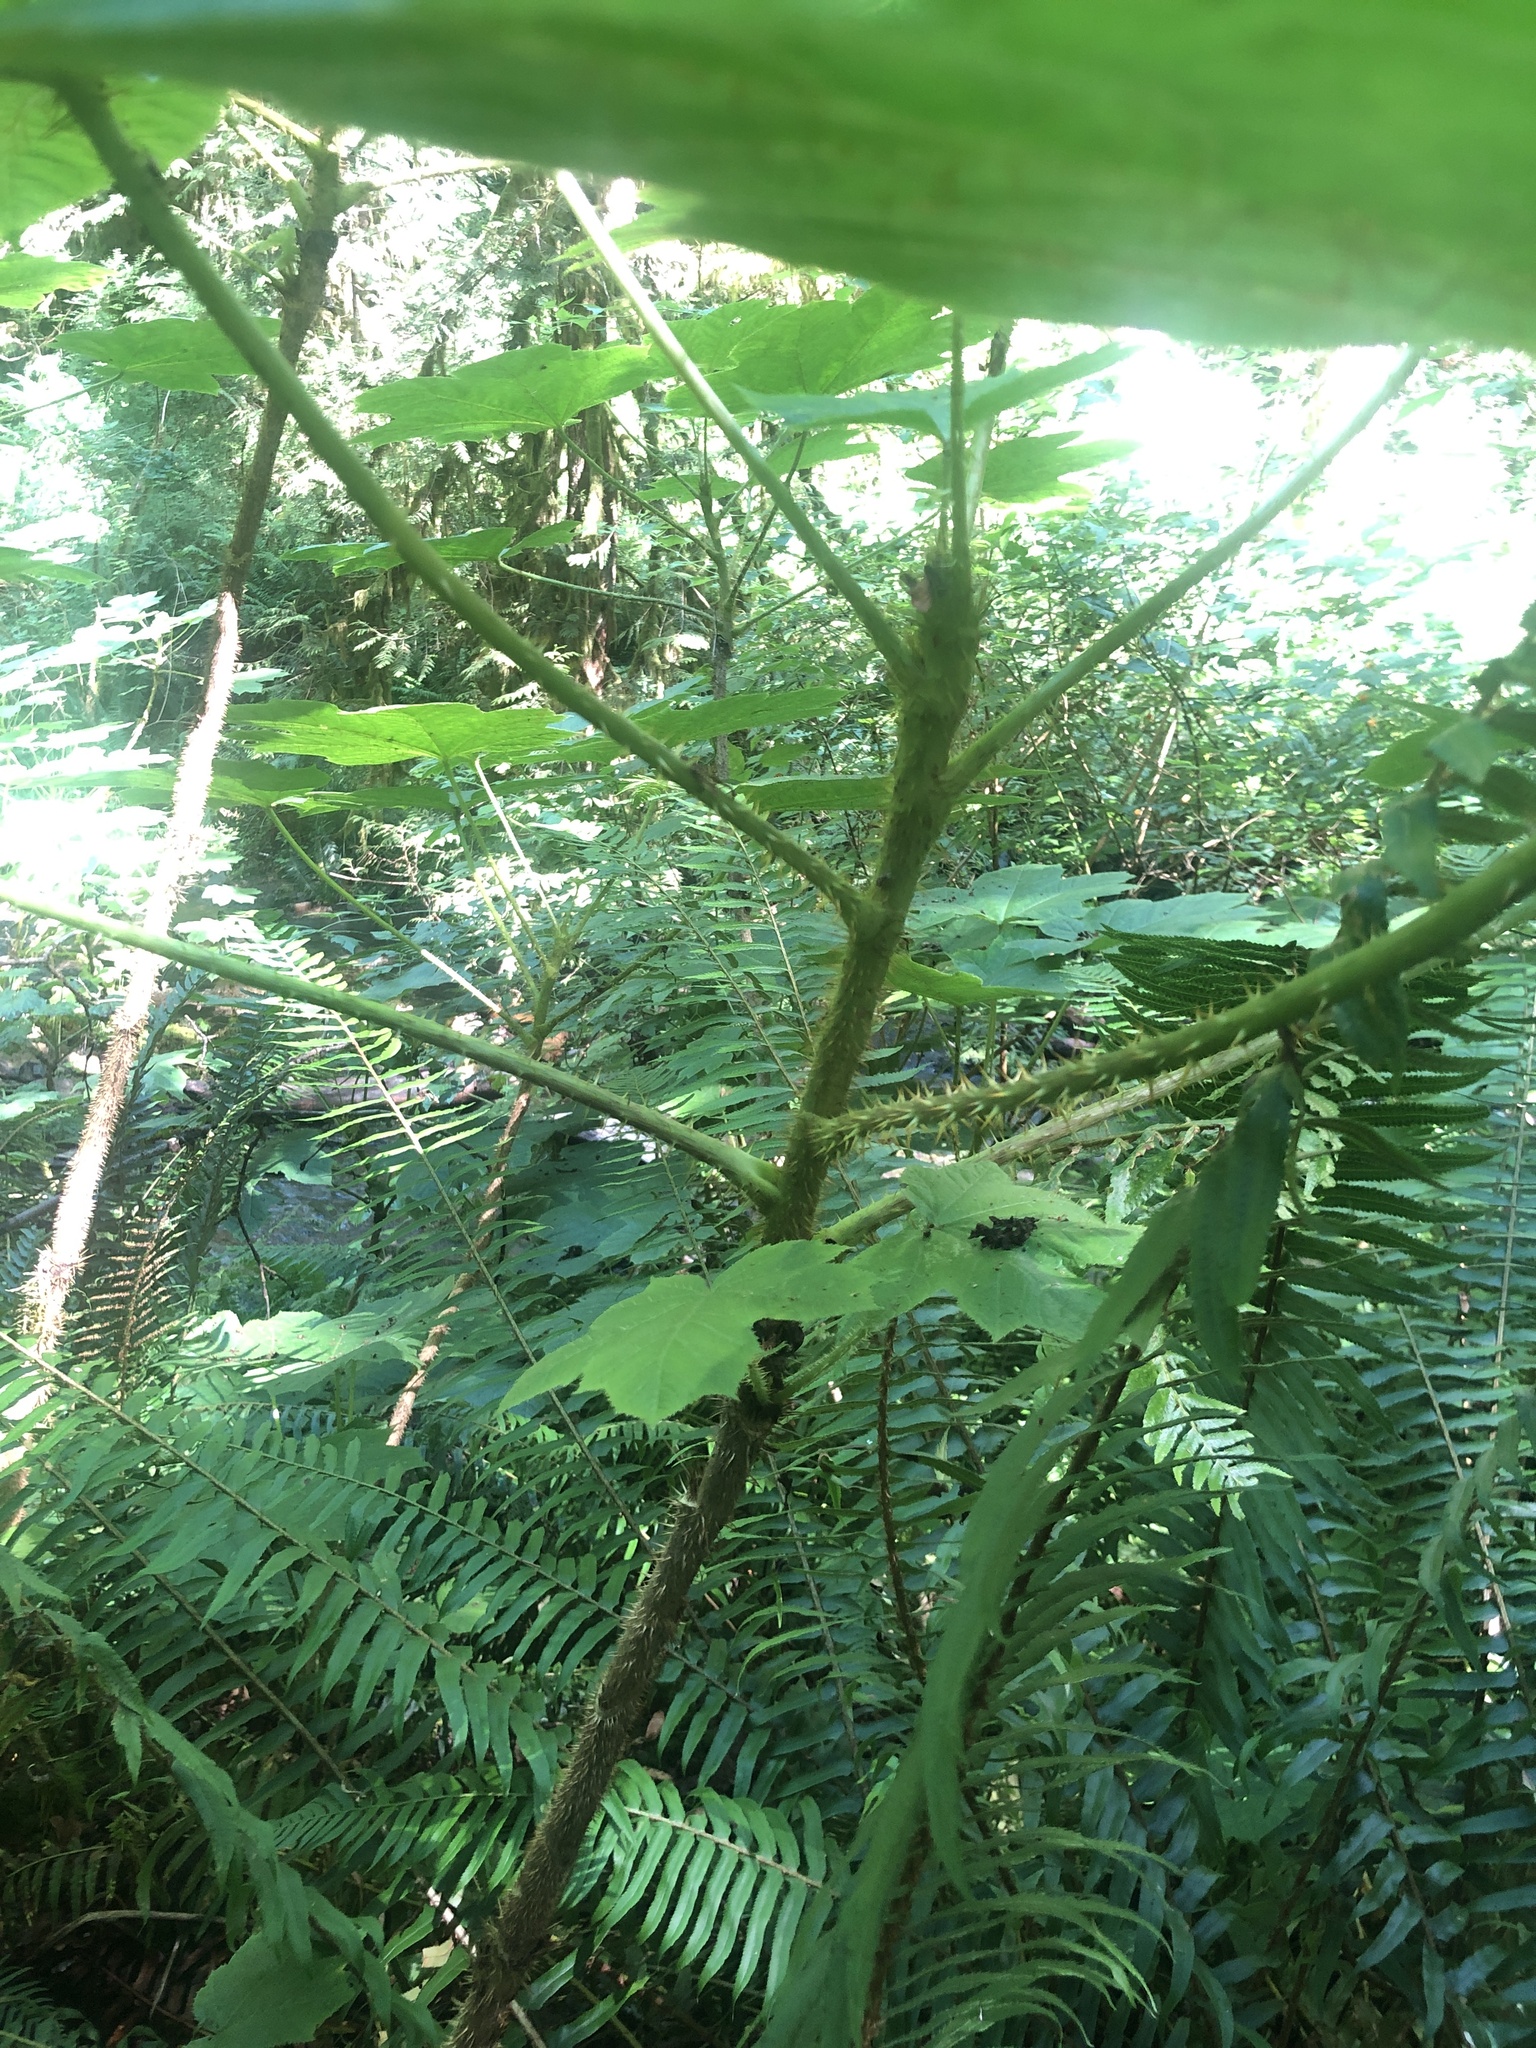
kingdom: Plantae
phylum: Tracheophyta
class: Magnoliopsida
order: Apiales
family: Araliaceae
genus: Oplopanax
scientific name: Oplopanax horridus
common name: Devil's walking-stick
